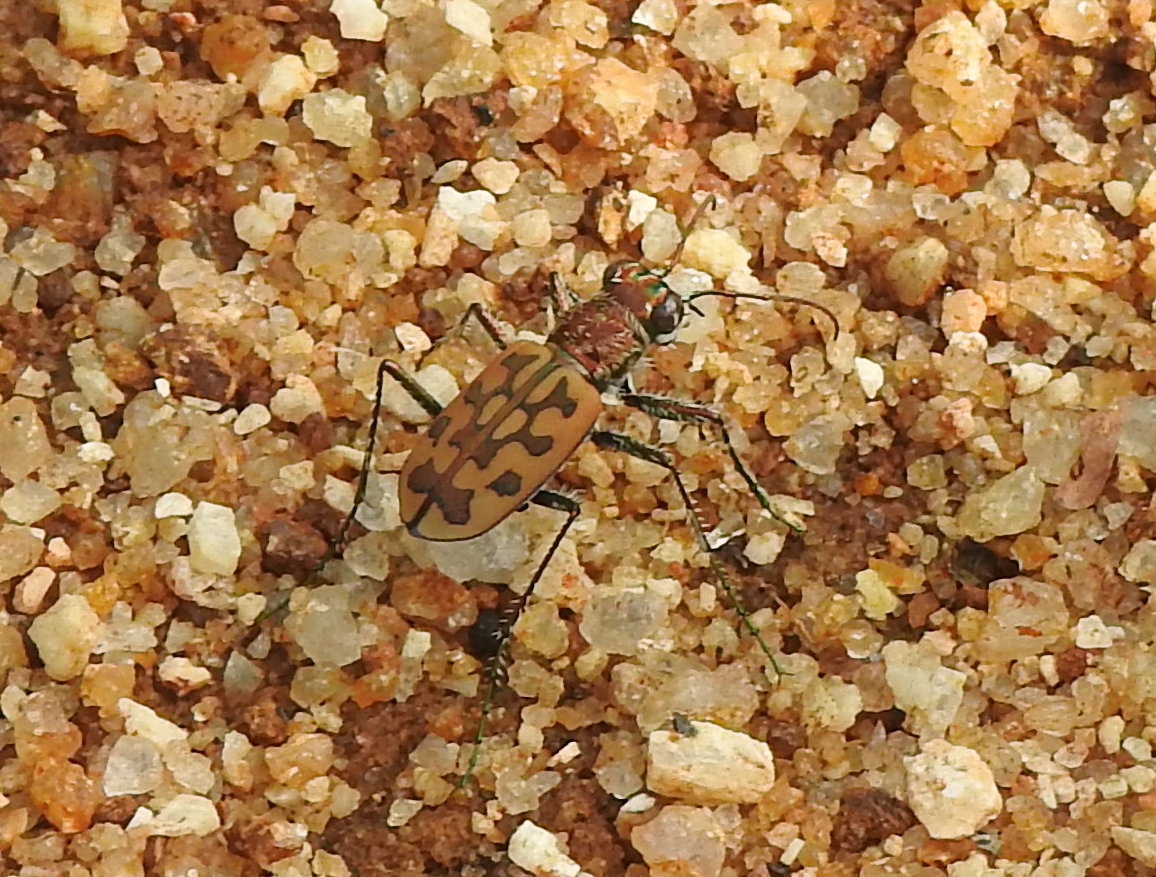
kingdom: Animalia
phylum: Arthropoda
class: Insecta
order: Coleoptera
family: Carabidae
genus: Lophyra
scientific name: Lophyra catena
